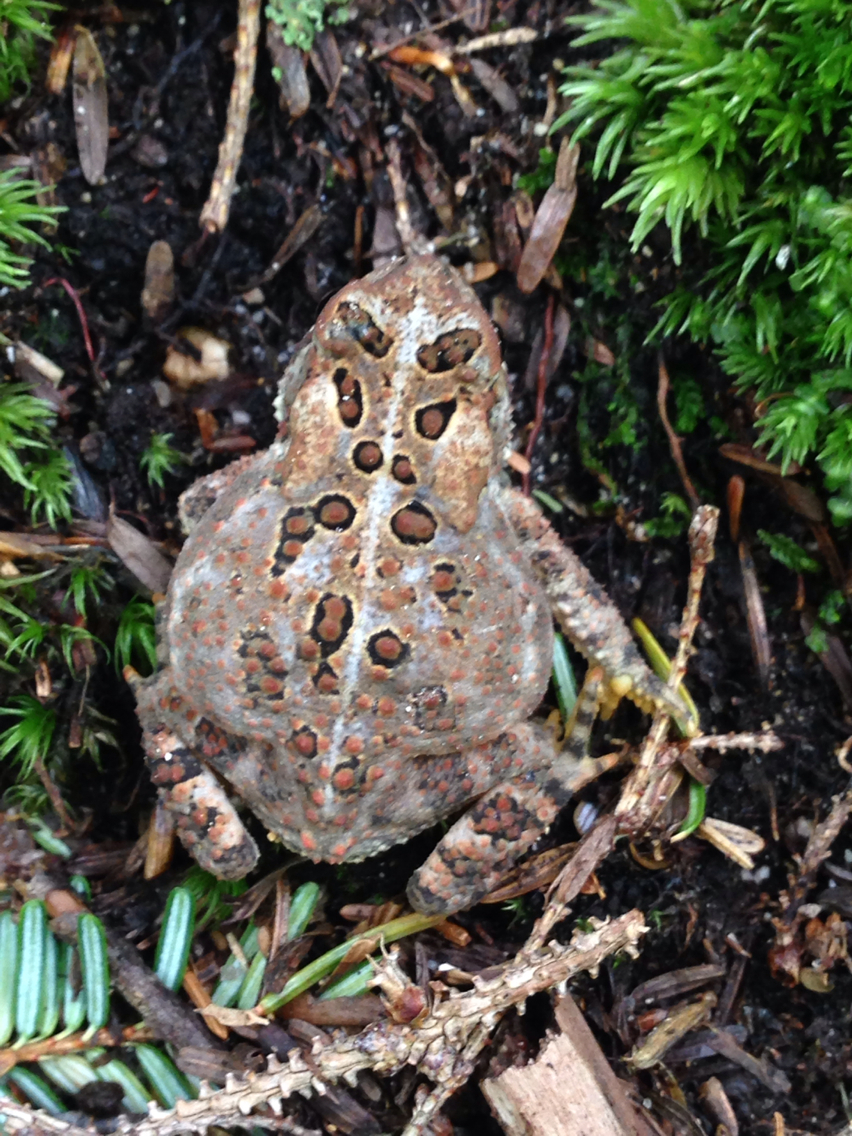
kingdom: Animalia
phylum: Chordata
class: Amphibia
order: Anura
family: Bufonidae
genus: Anaxyrus
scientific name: Anaxyrus americanus
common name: American toad
